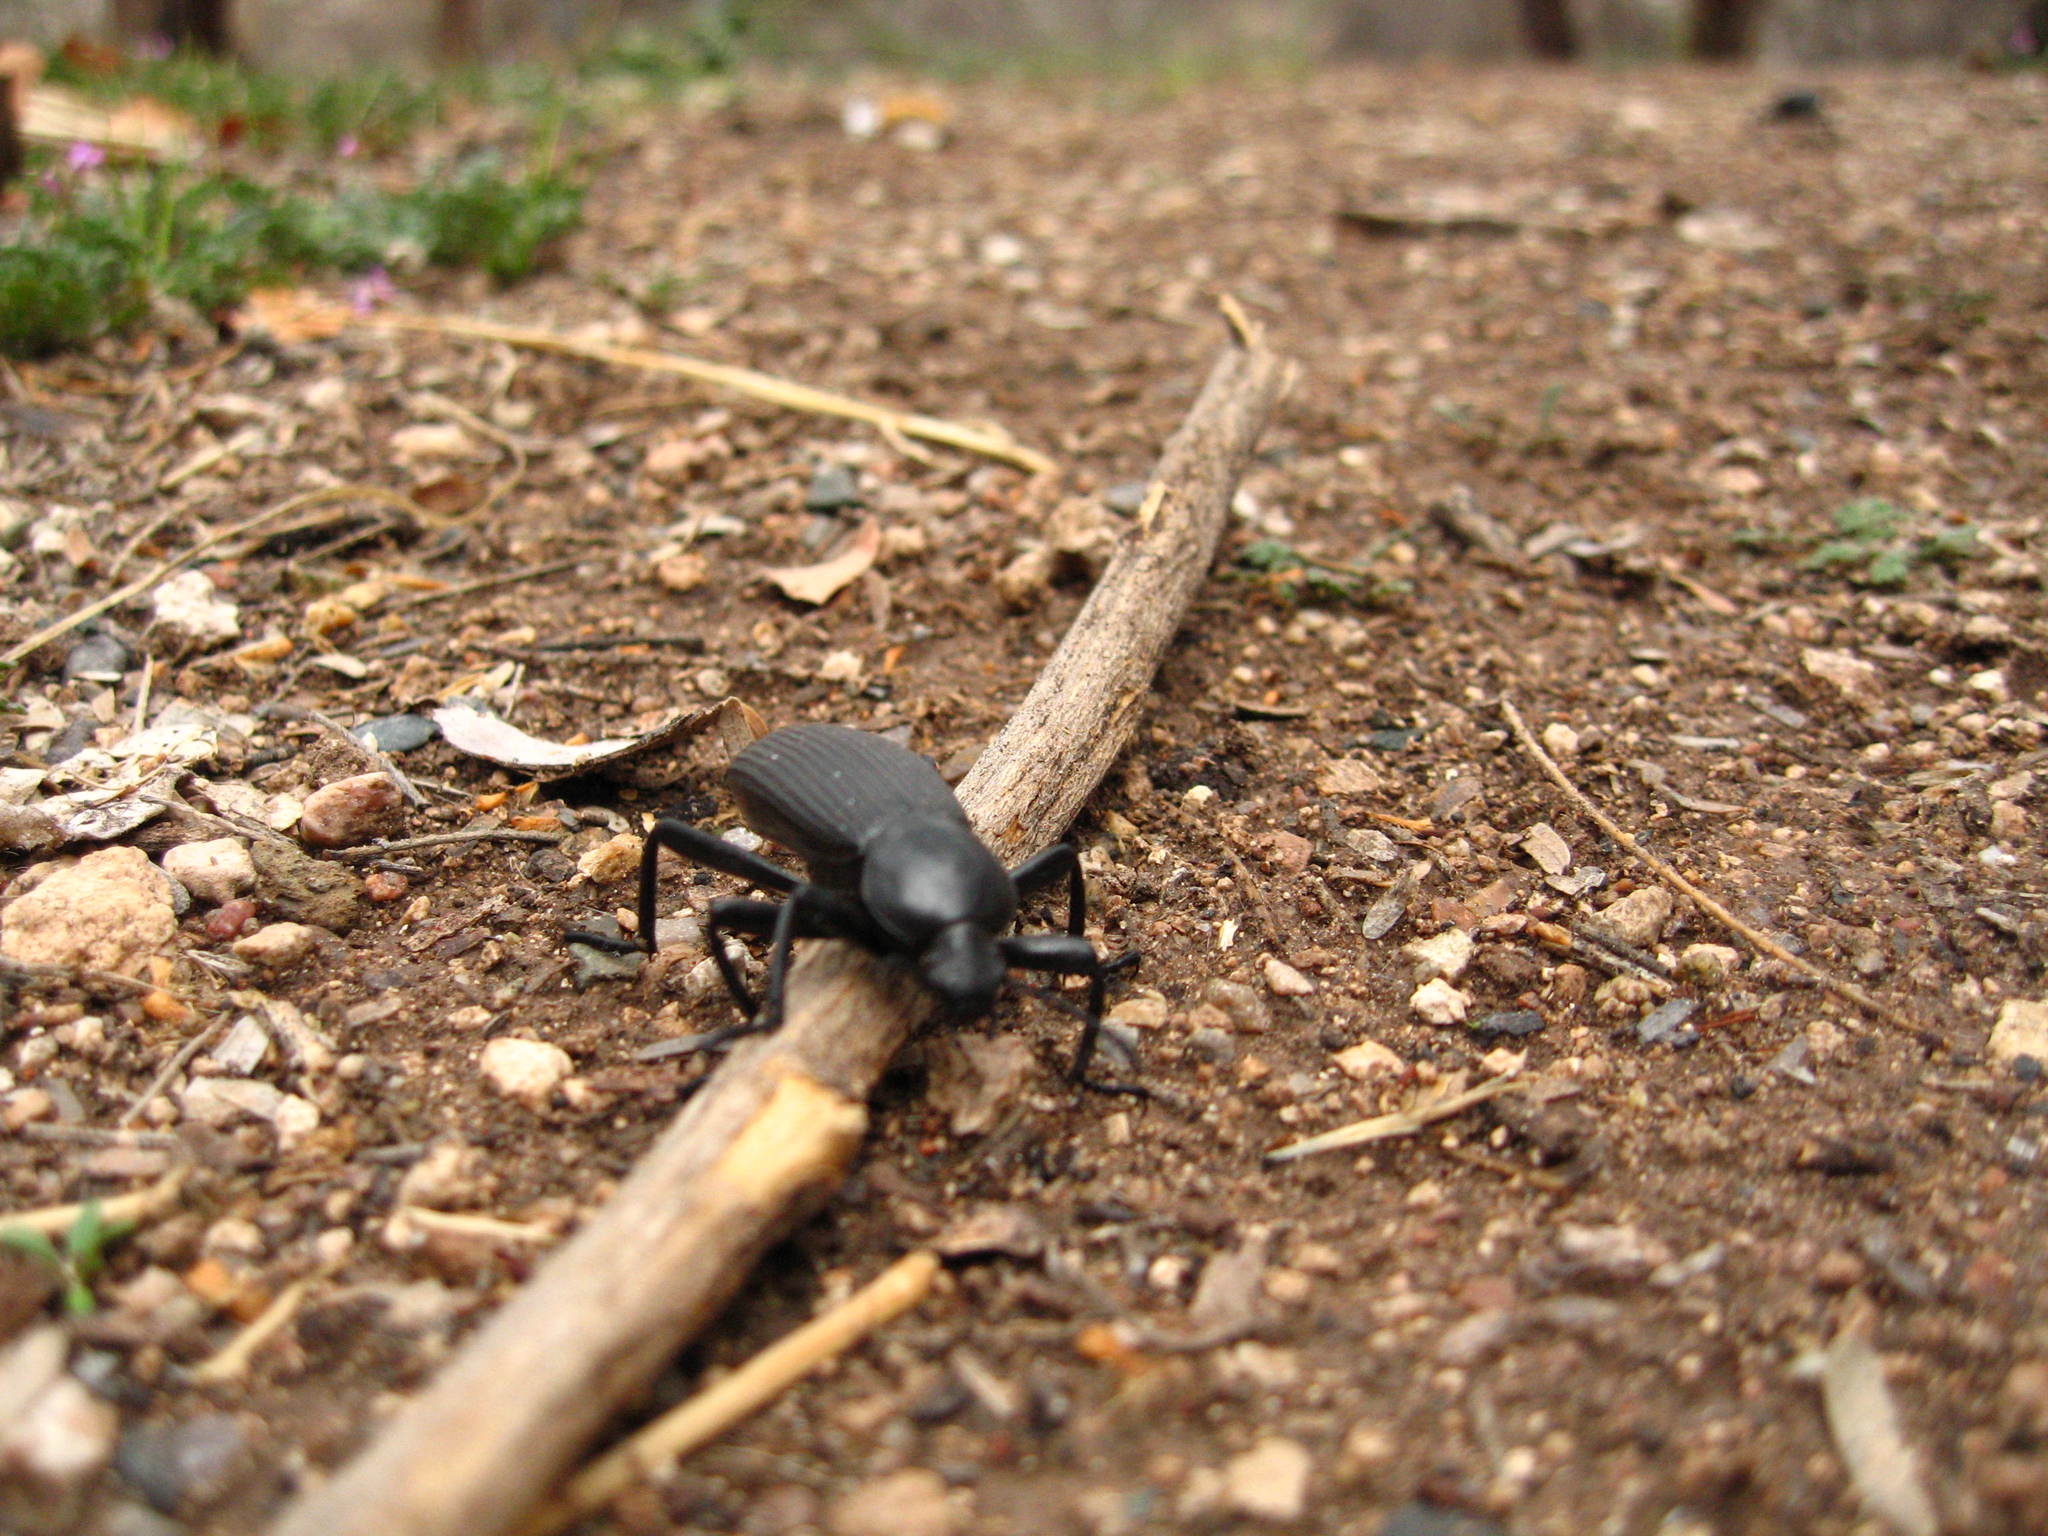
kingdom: Animalia
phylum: Arthropoda
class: Insecta
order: Coleoptera
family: Tenebrionidae
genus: Eleodes
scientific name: Eleodes obscura
